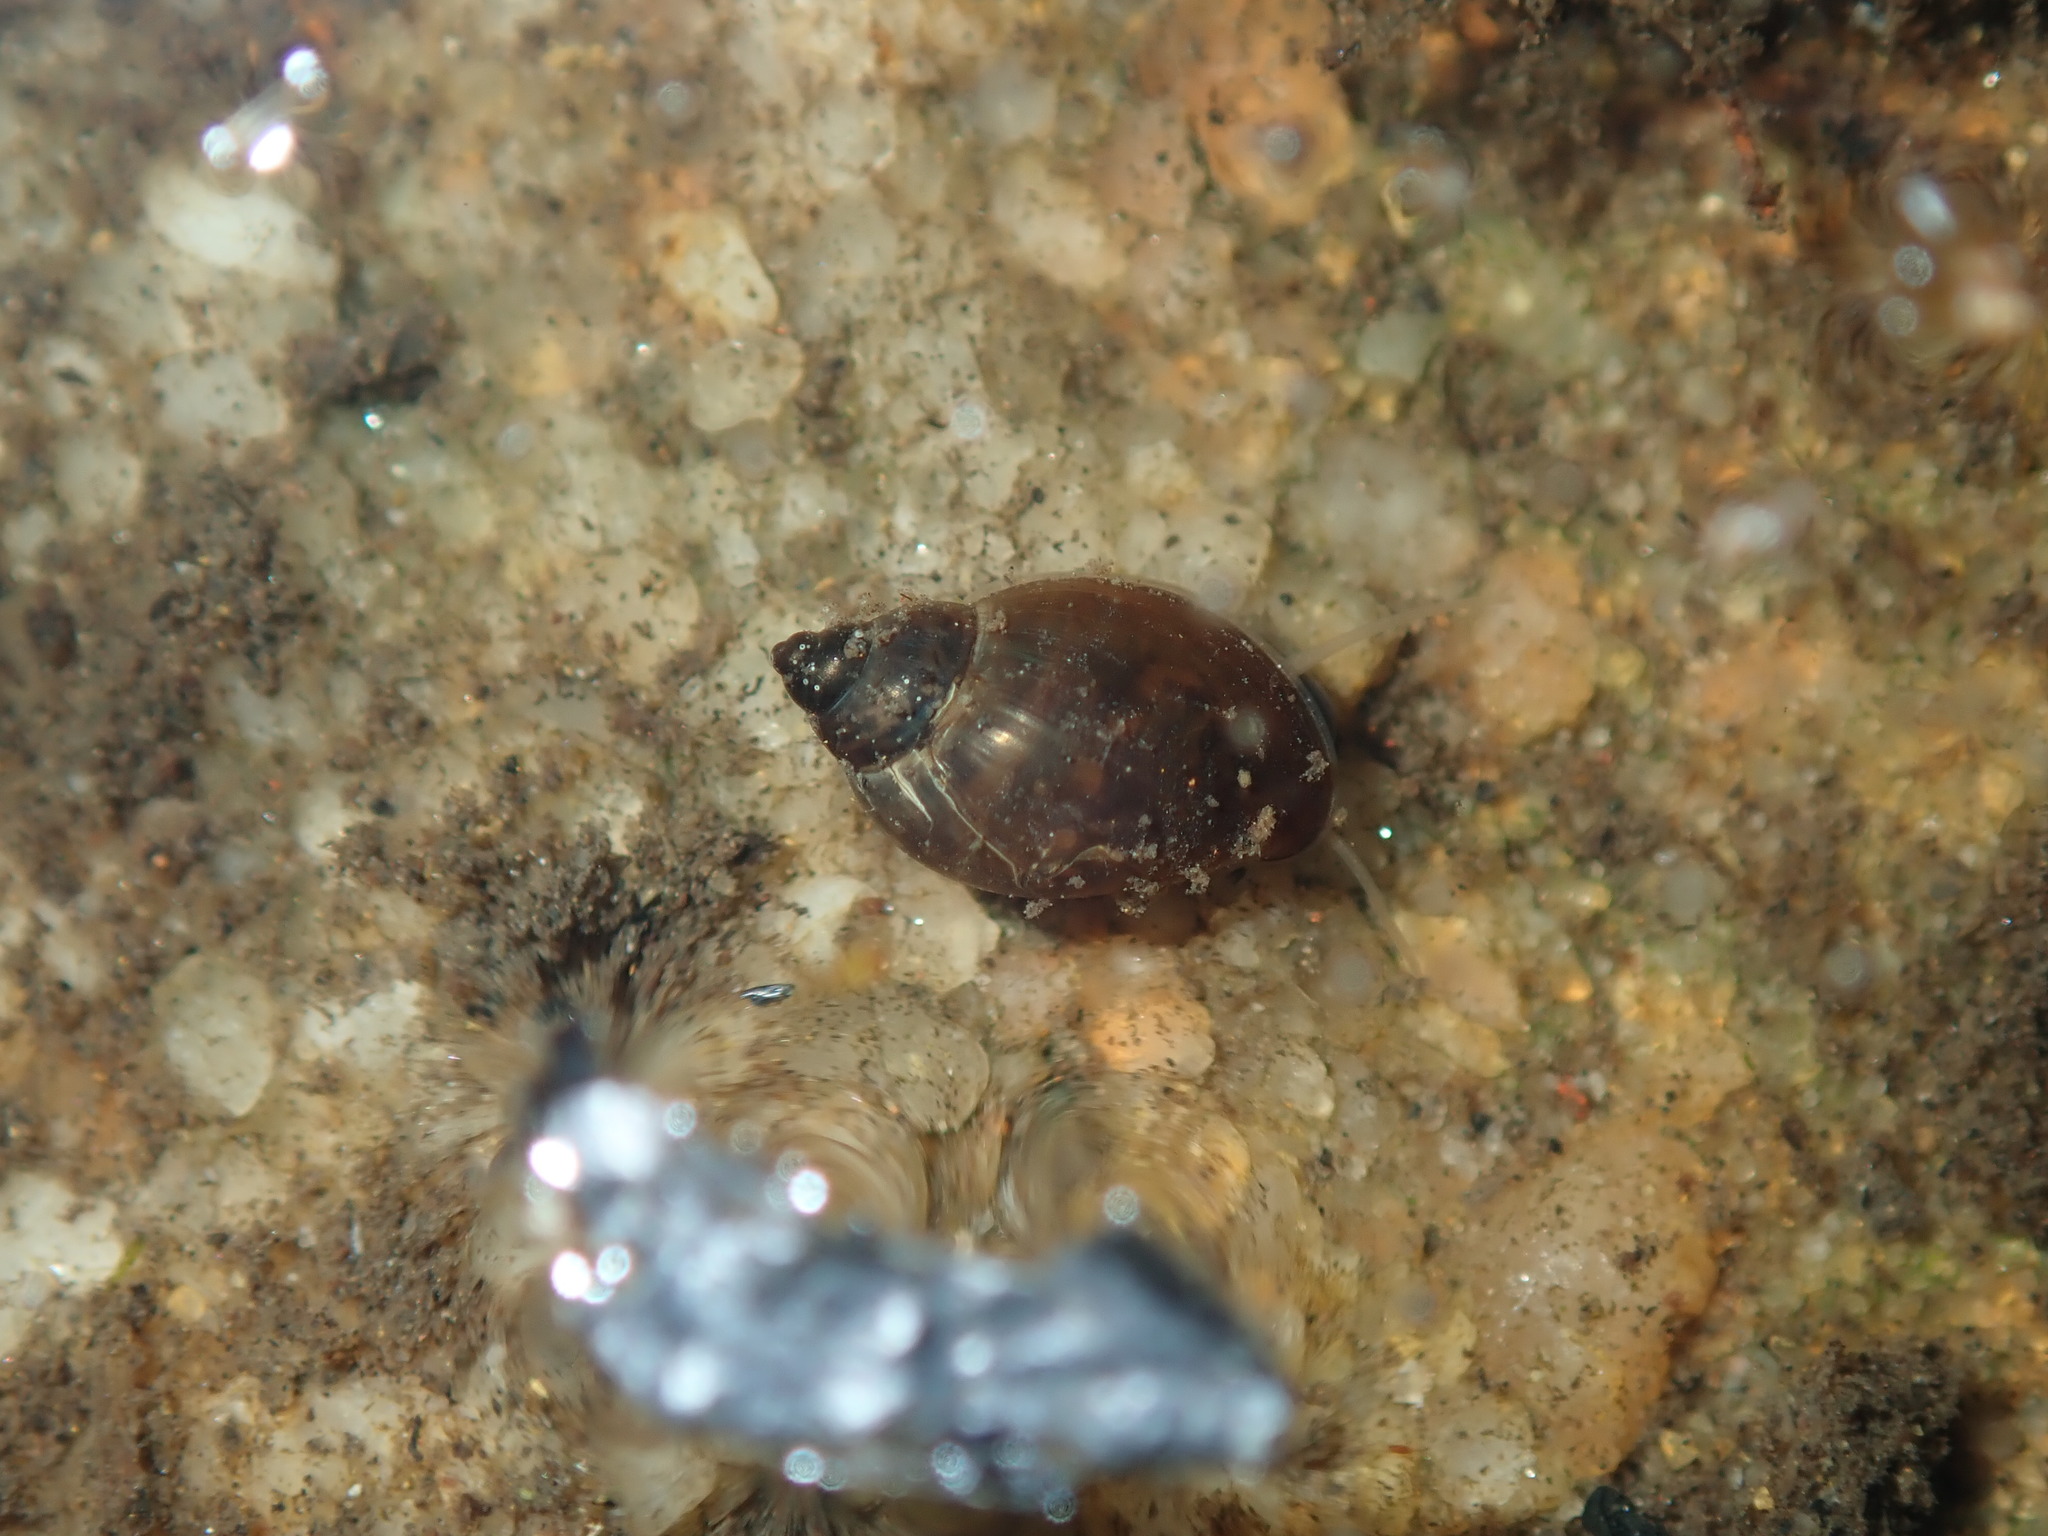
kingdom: Animalia
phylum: Mollusca
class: Gastropoda
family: Physidae
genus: Physella
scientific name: Physella acuta
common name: European physa
